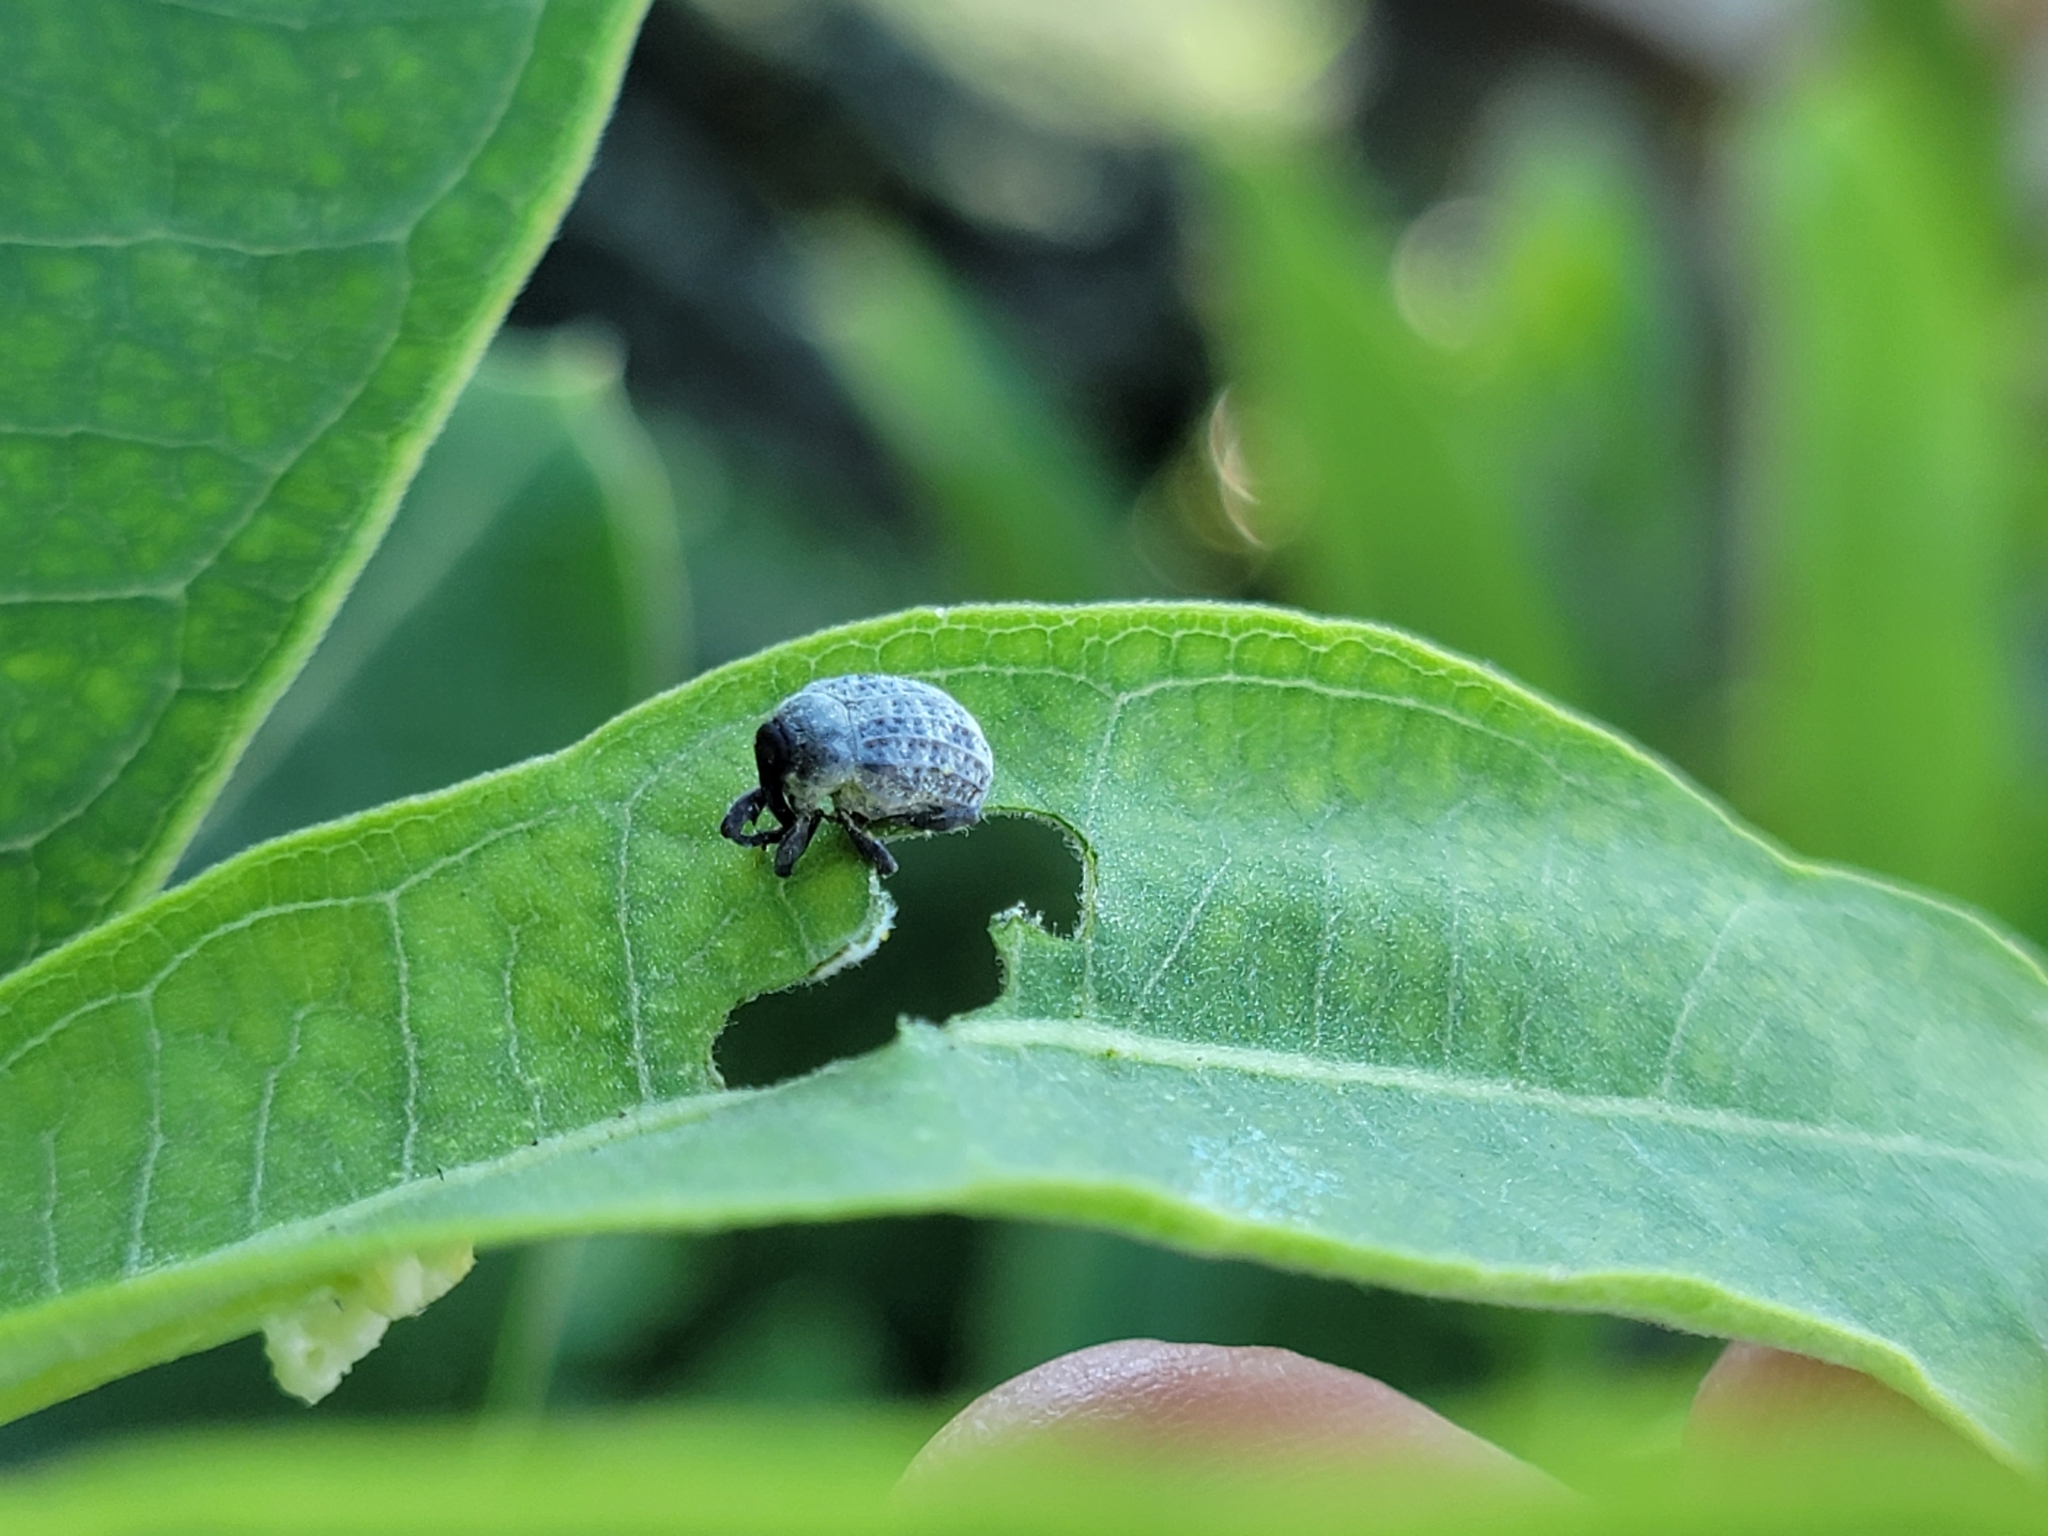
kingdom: Animalia
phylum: Arthropoda
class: Insecta
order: Coleoptera
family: Curculionidae
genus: Rhyssomatus
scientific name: Rhyssomatus lineaticollis
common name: Milkweed stem weevil
